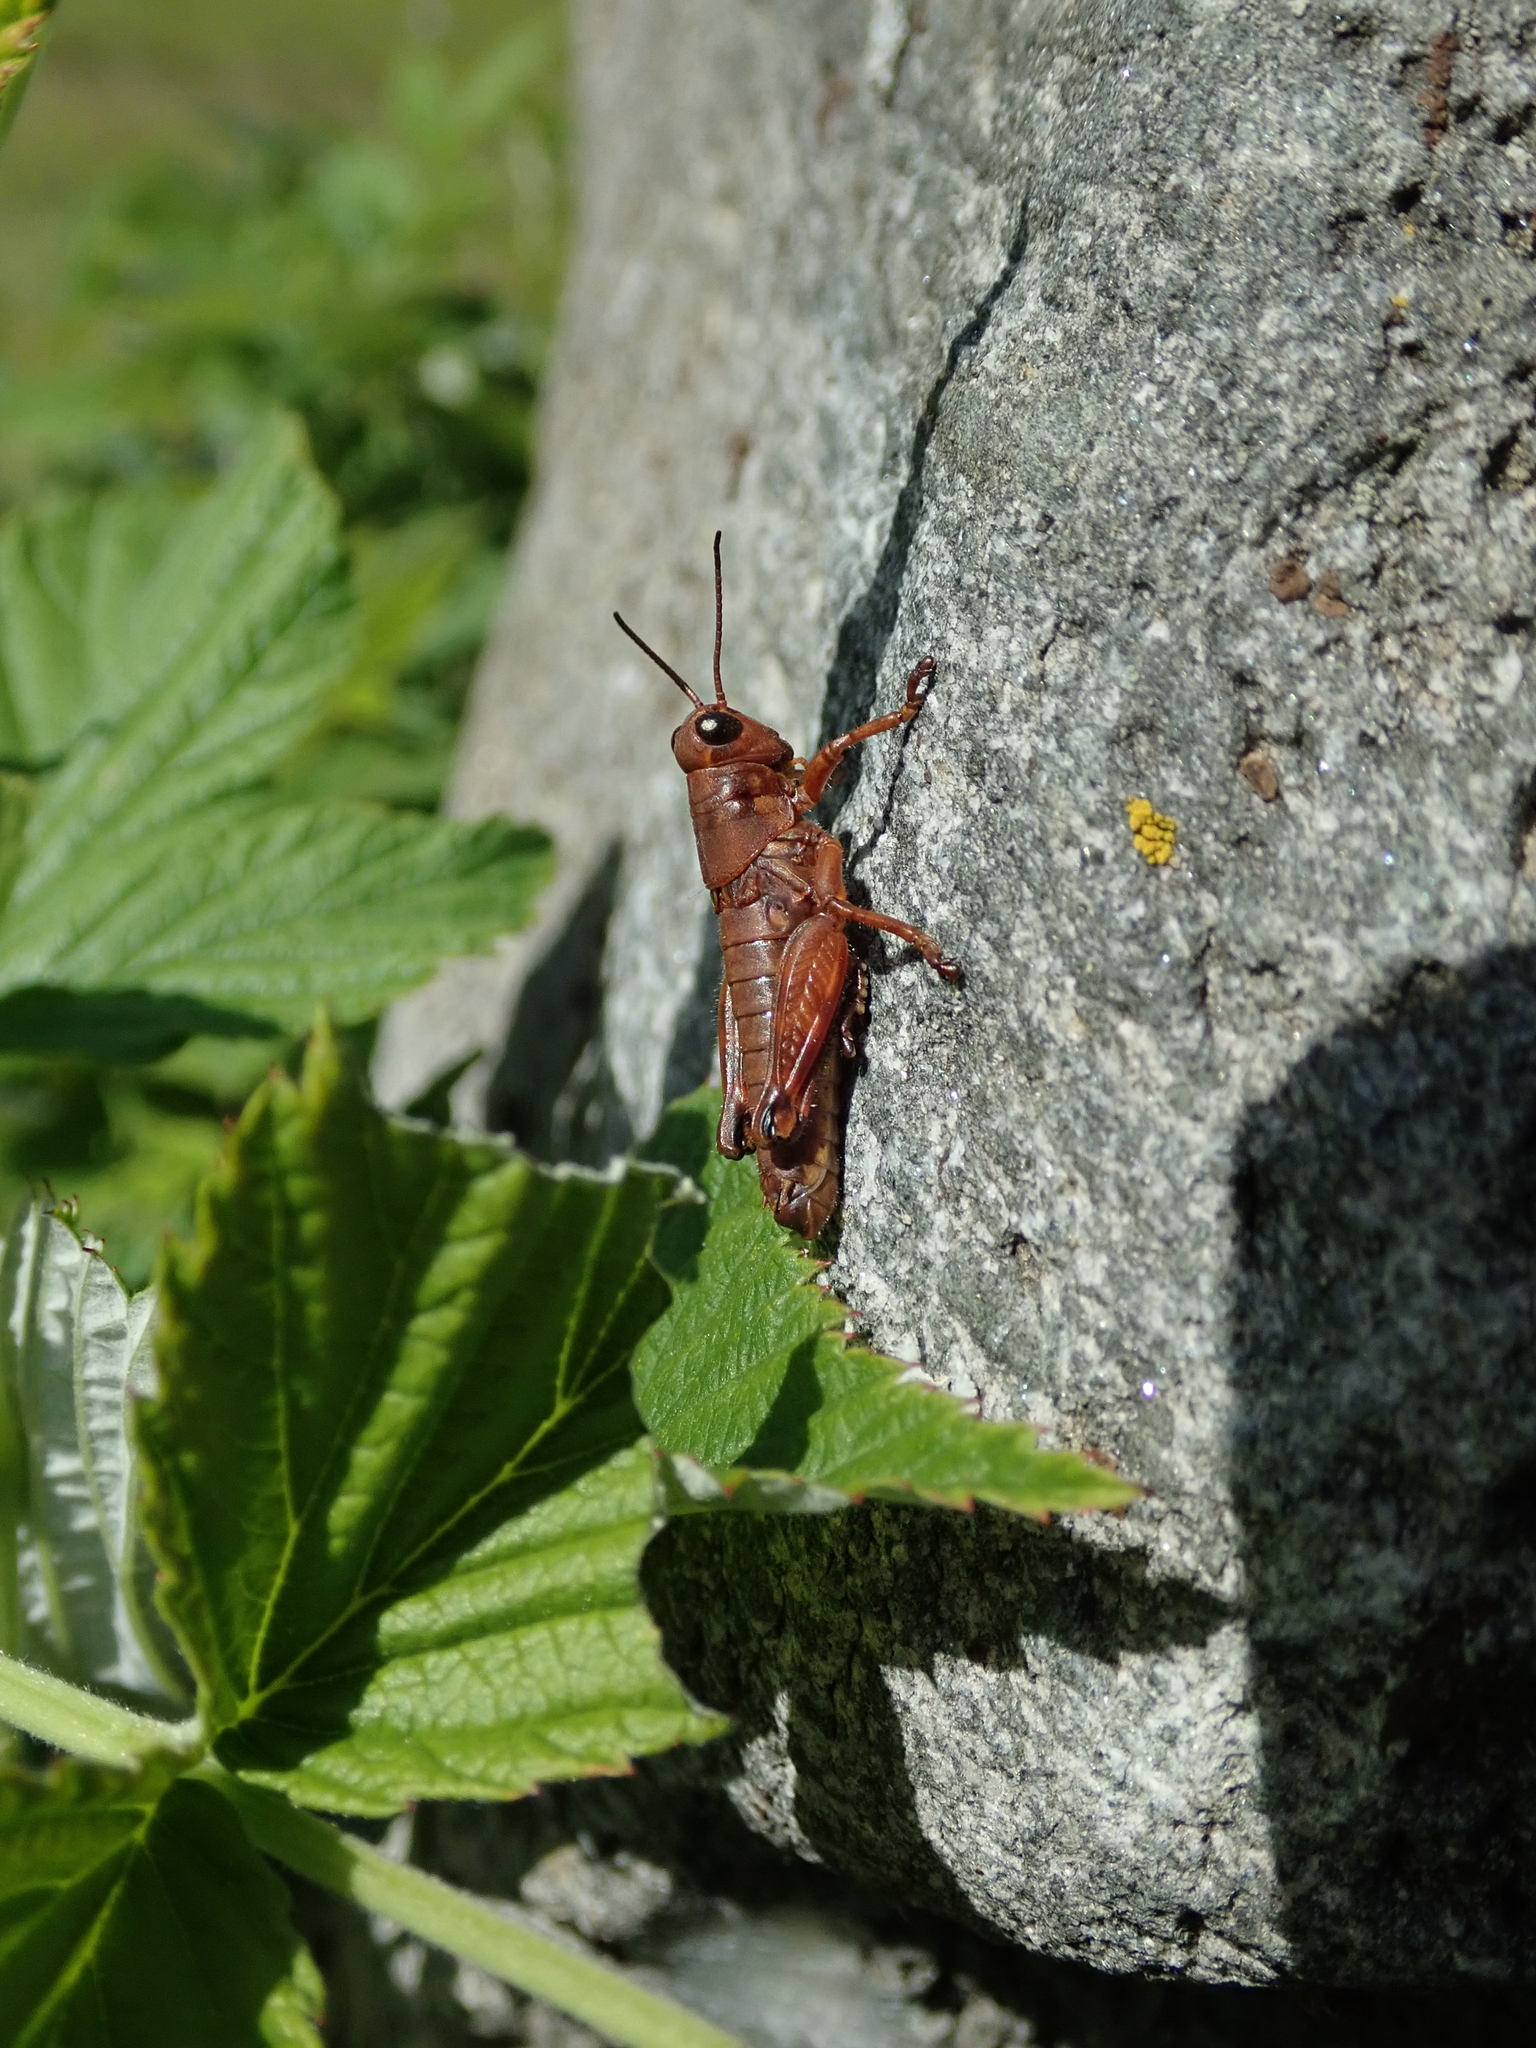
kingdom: Animalia
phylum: Arthropoda
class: Insecta
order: Orthoptera
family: Acrididae
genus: Podisma
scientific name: Podisma pedestris
